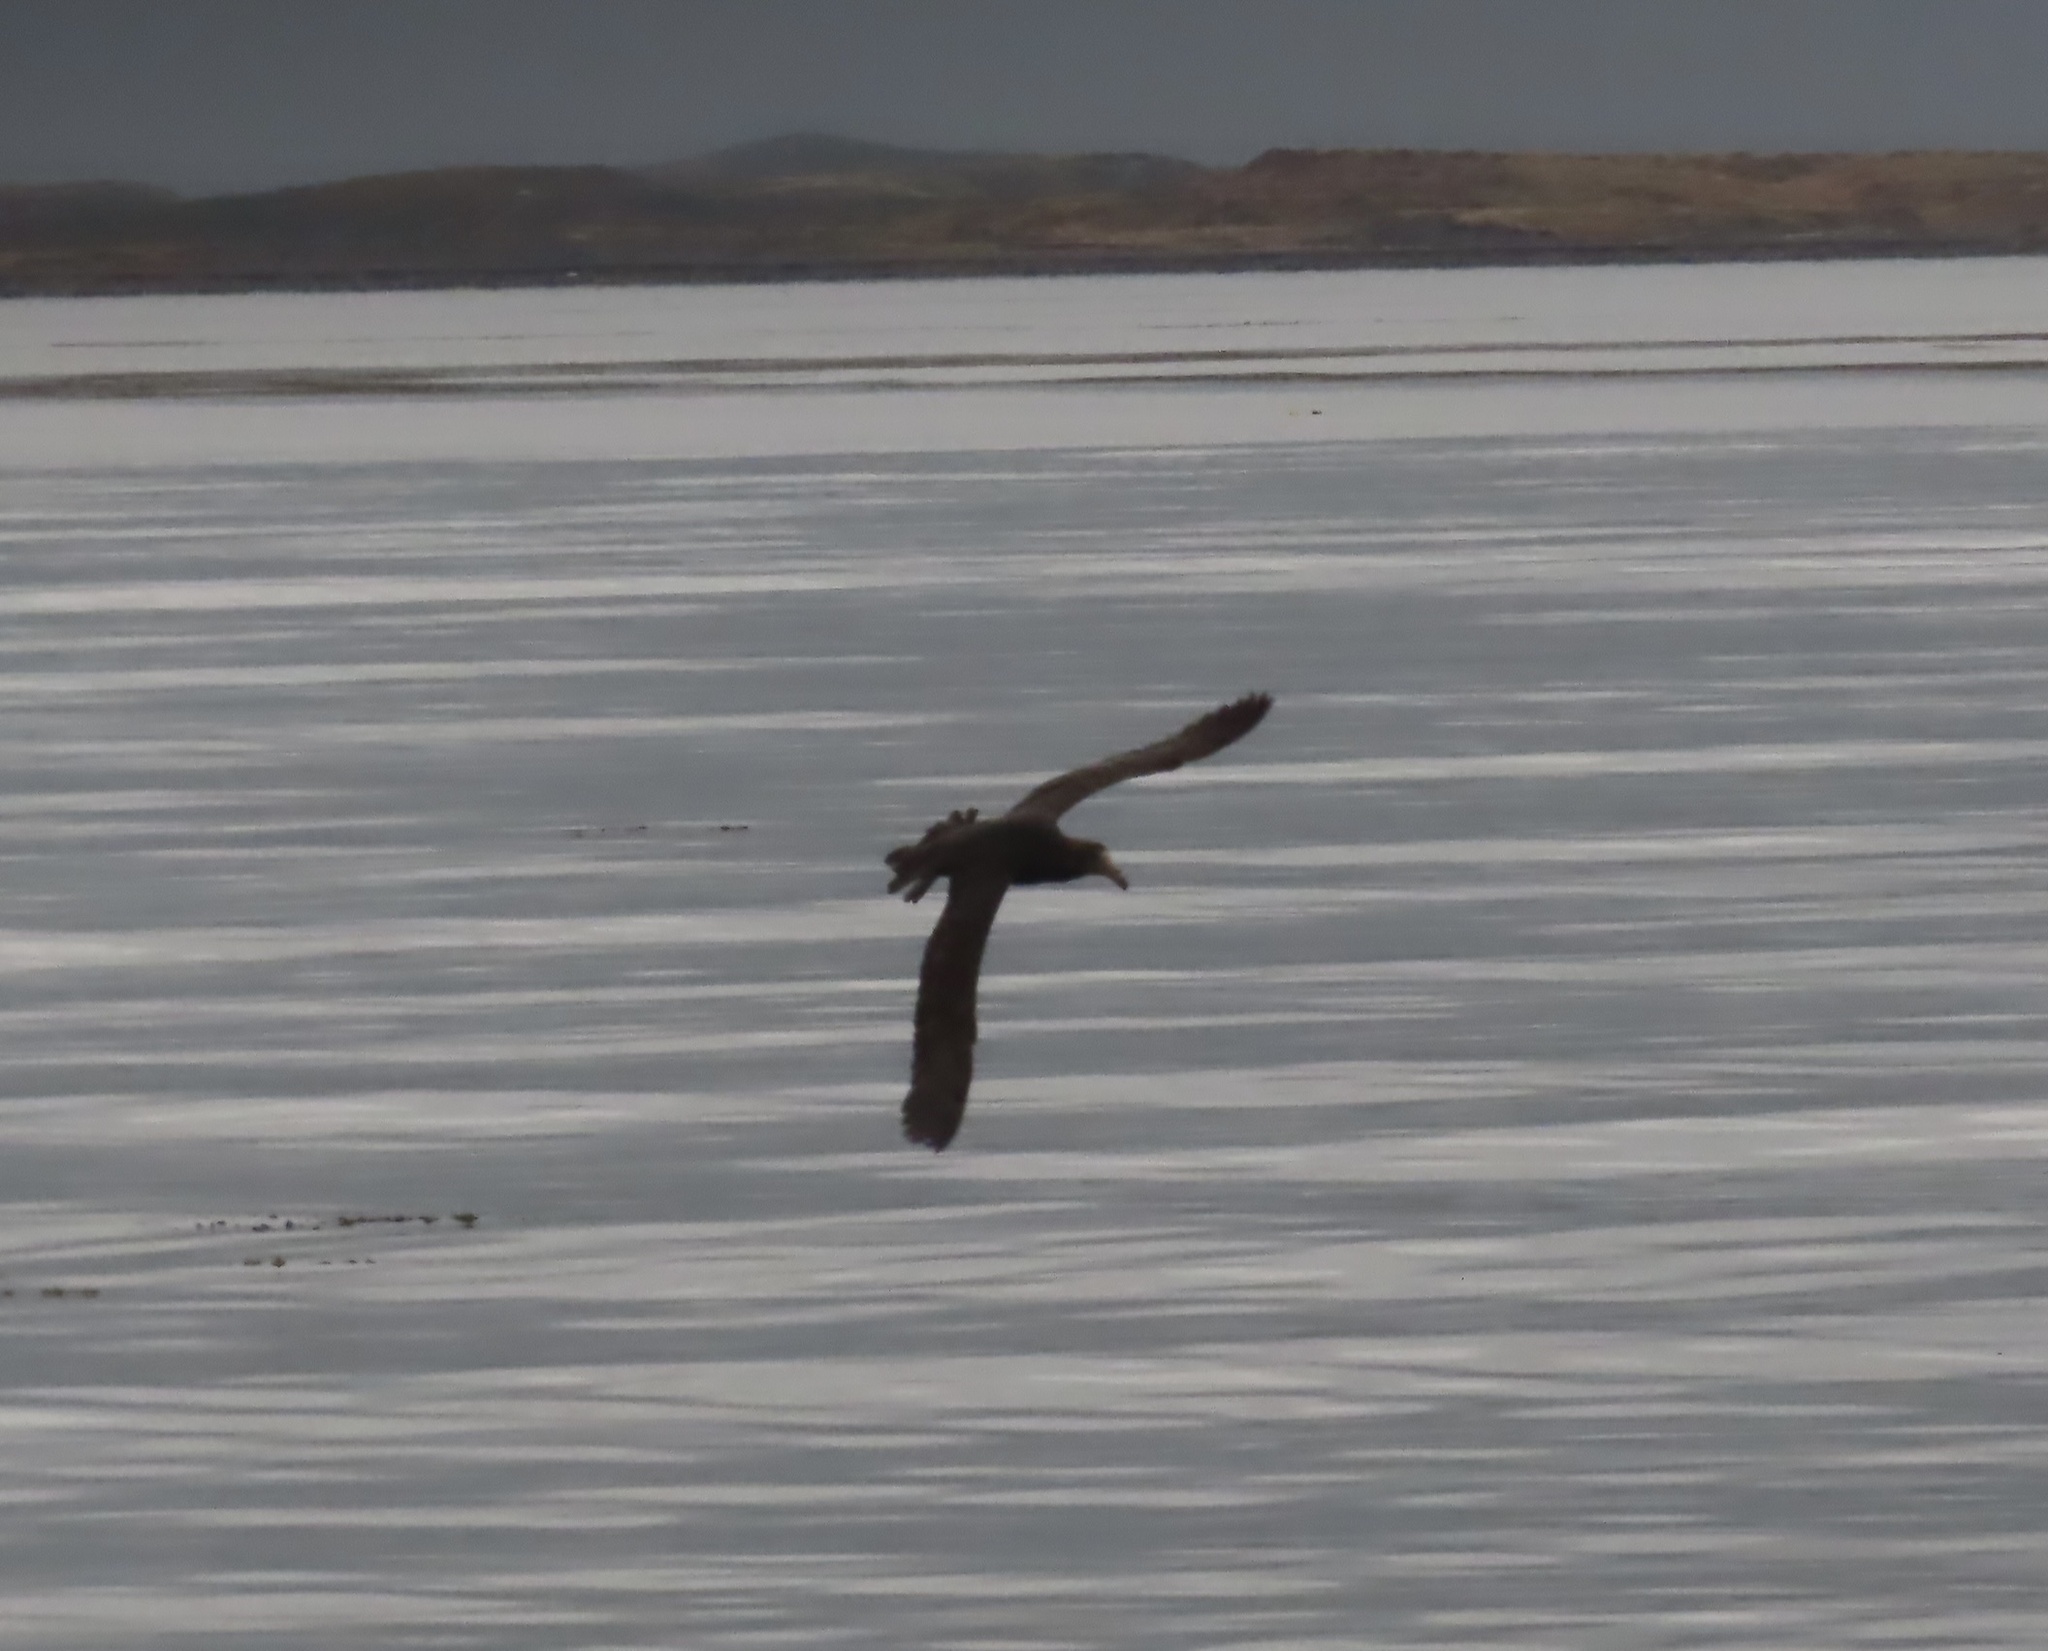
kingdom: Animalia
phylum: Chordata
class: Aves
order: Procellariiformes
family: Procellariidae
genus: Macronectes
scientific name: Macronectes giganteus
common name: Southern giant petrel
